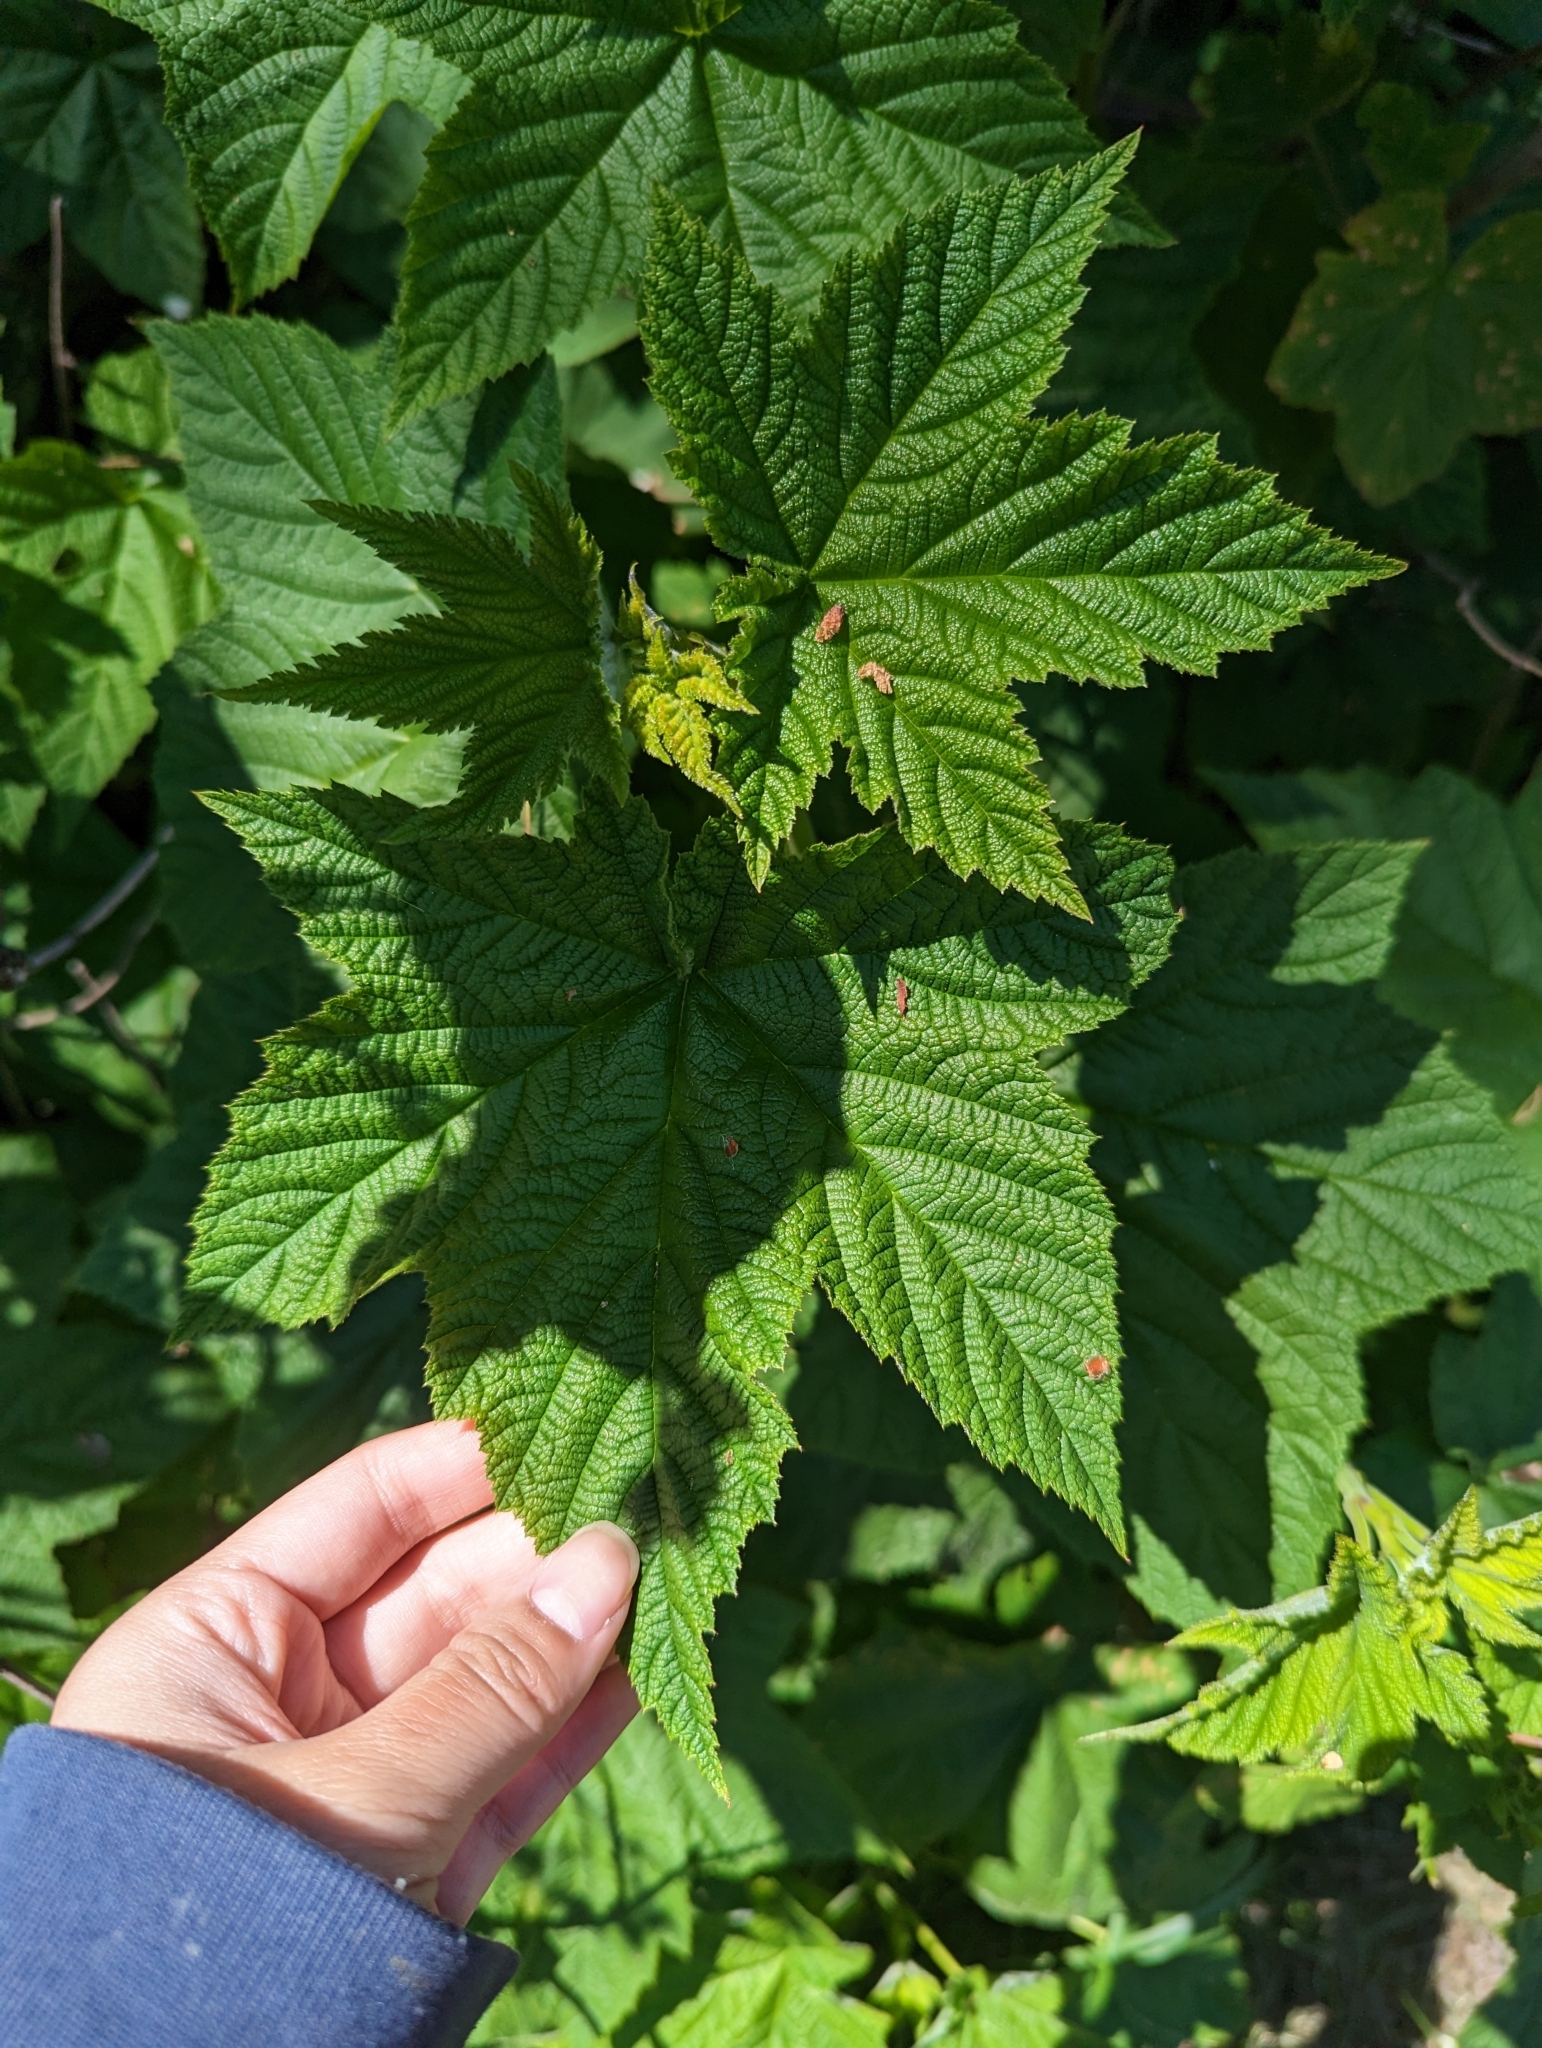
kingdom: Plantae
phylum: Tracheophyta
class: Magnoliopsida
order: Rosales
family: Rosaceae
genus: Rubus
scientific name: Rubus parviflorus
